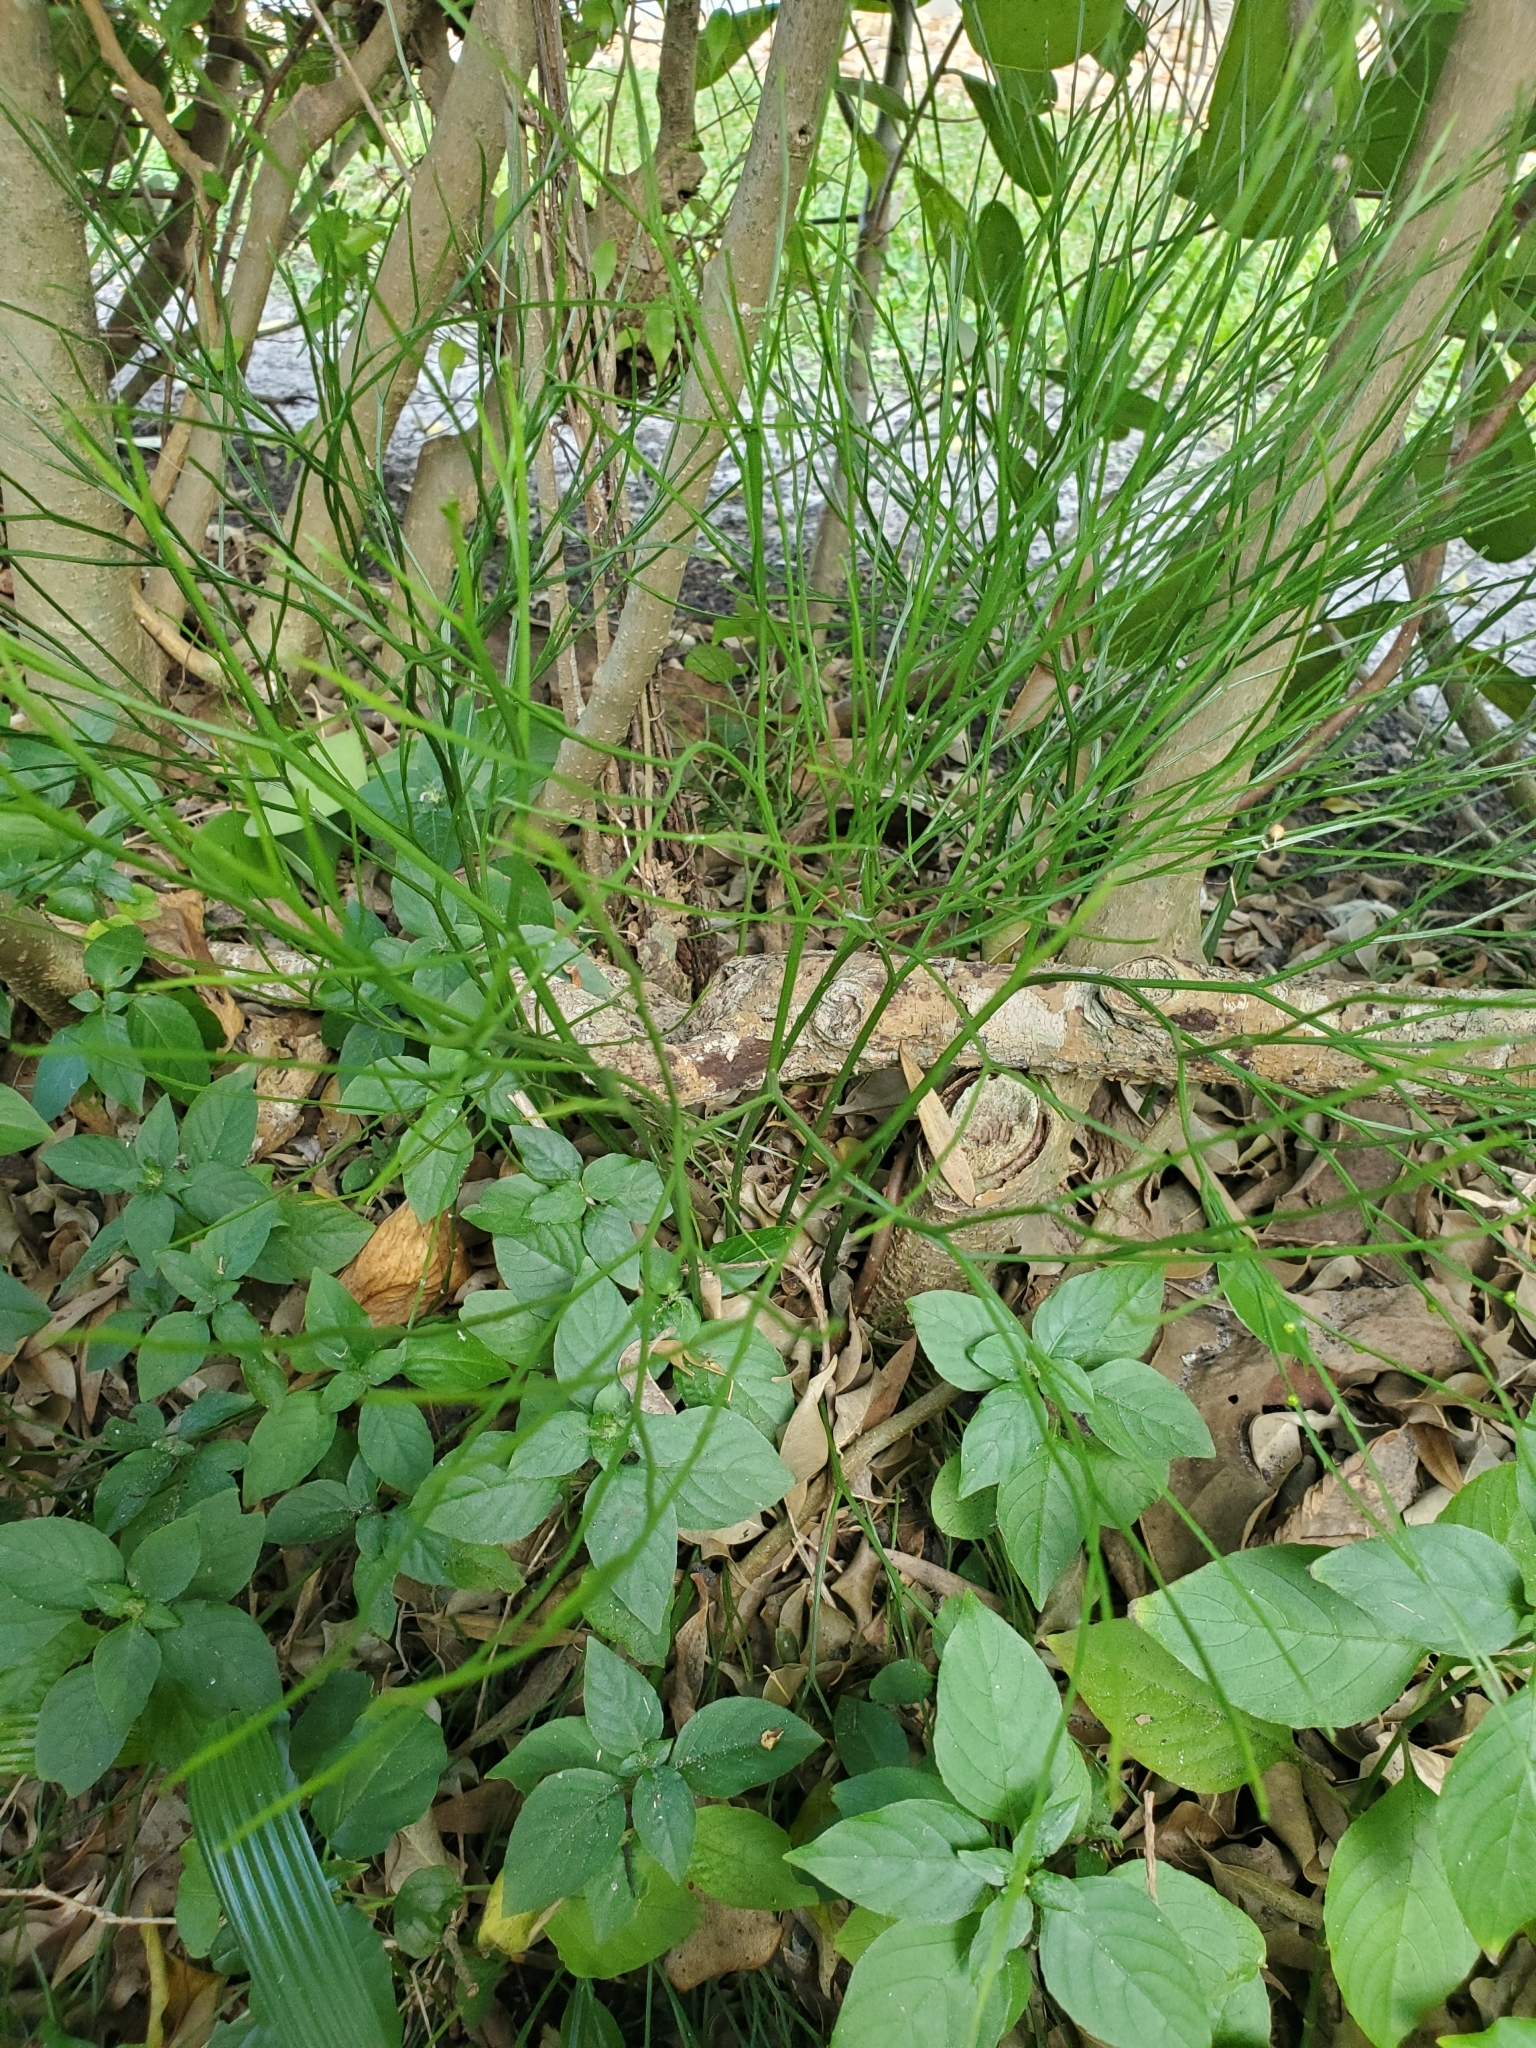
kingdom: Plantae
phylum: Tracheophyta
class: Polypodiopsida
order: Psilotales
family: Psilotaceae
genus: Psilotum
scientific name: Psilotum nudum
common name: Skeleton fork fern
